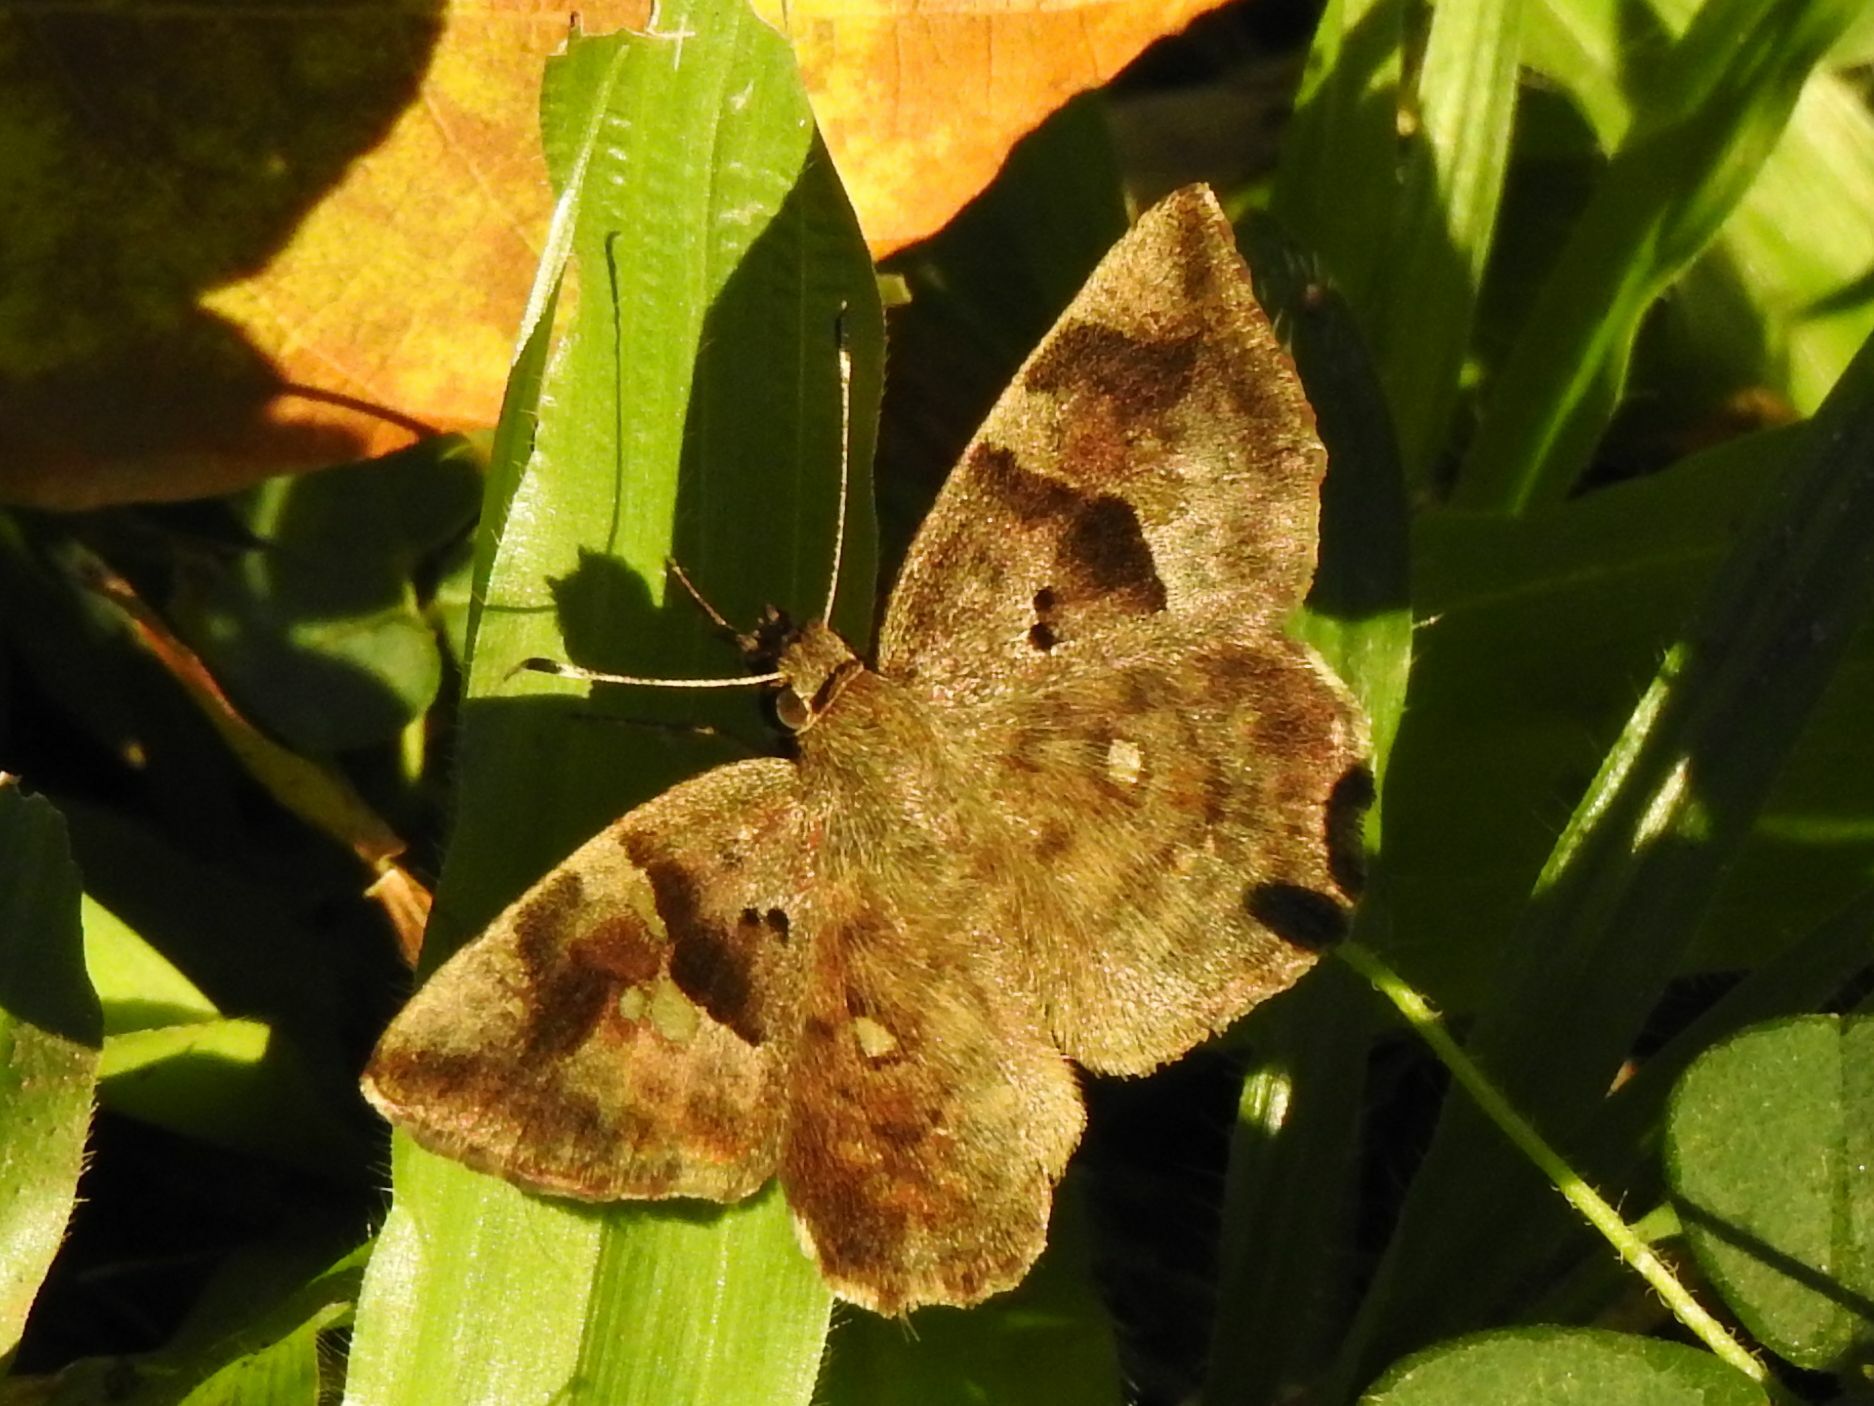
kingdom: Animalia
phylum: Arthropoda
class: Insecta
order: Lepidoptera
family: Hesperiidae
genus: Sarangesa
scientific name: Sarangesa motozi
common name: Forest elfin
